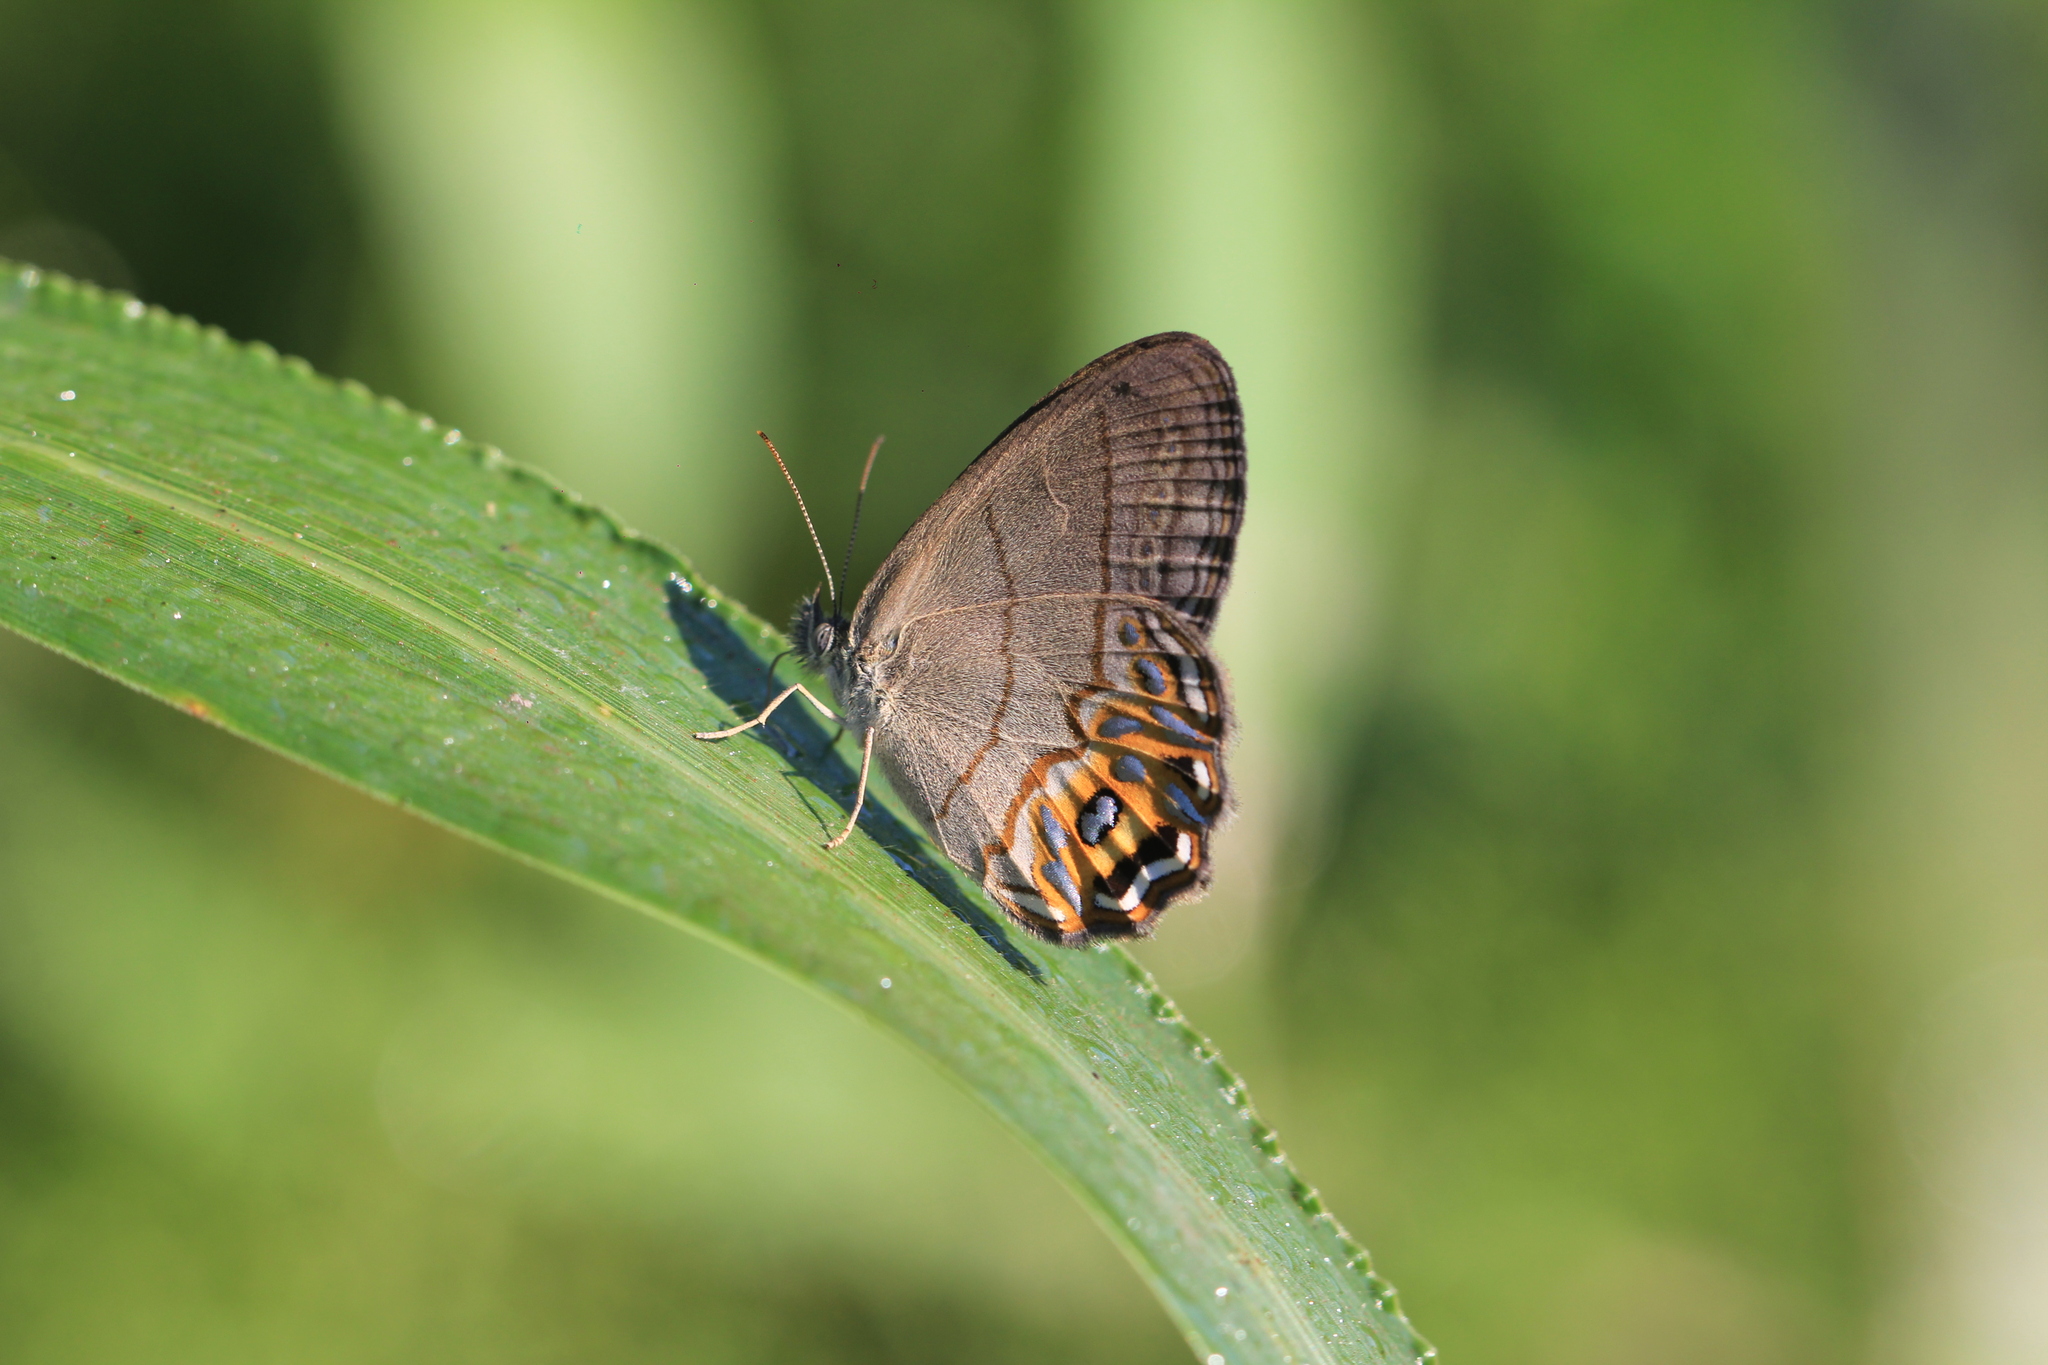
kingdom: Animalia
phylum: Arthropoda
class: Insecta
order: Lepidoptera
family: Nymphalidae
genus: Splendeuptychia
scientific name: Splendeuptychia libitina
